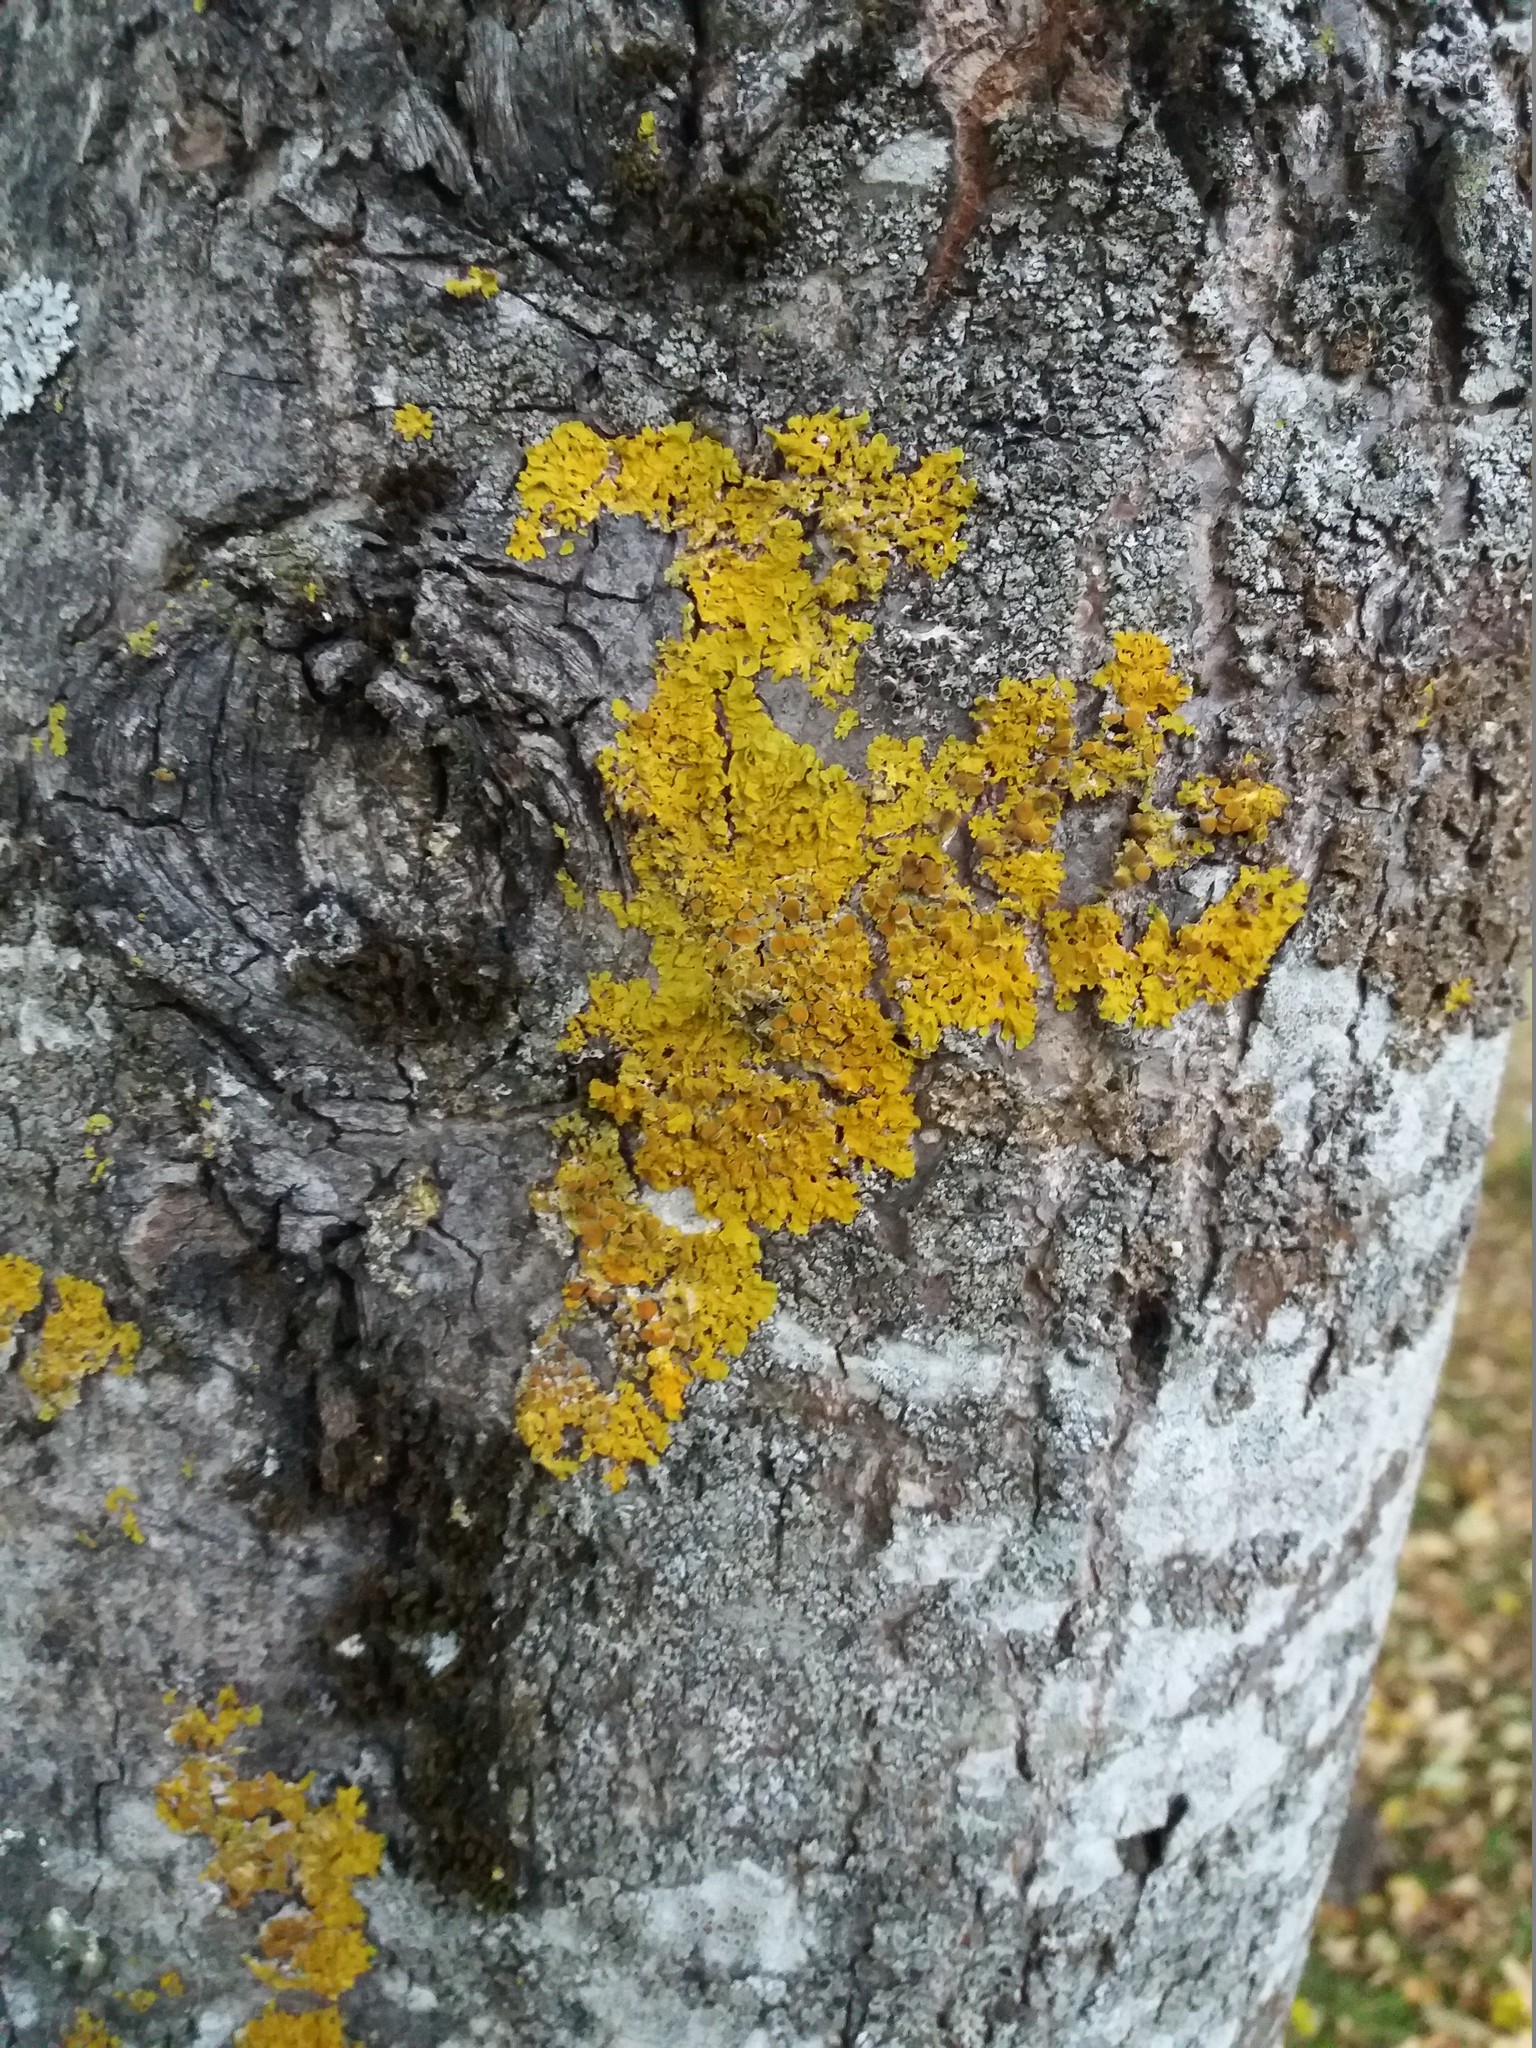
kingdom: Fungi
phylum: Ascomycota
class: Lecanoromycetes
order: Teloschistales
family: Teloschistaceae
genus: Xanthoria
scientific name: Xanthoria parietina
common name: Common orange lichen
